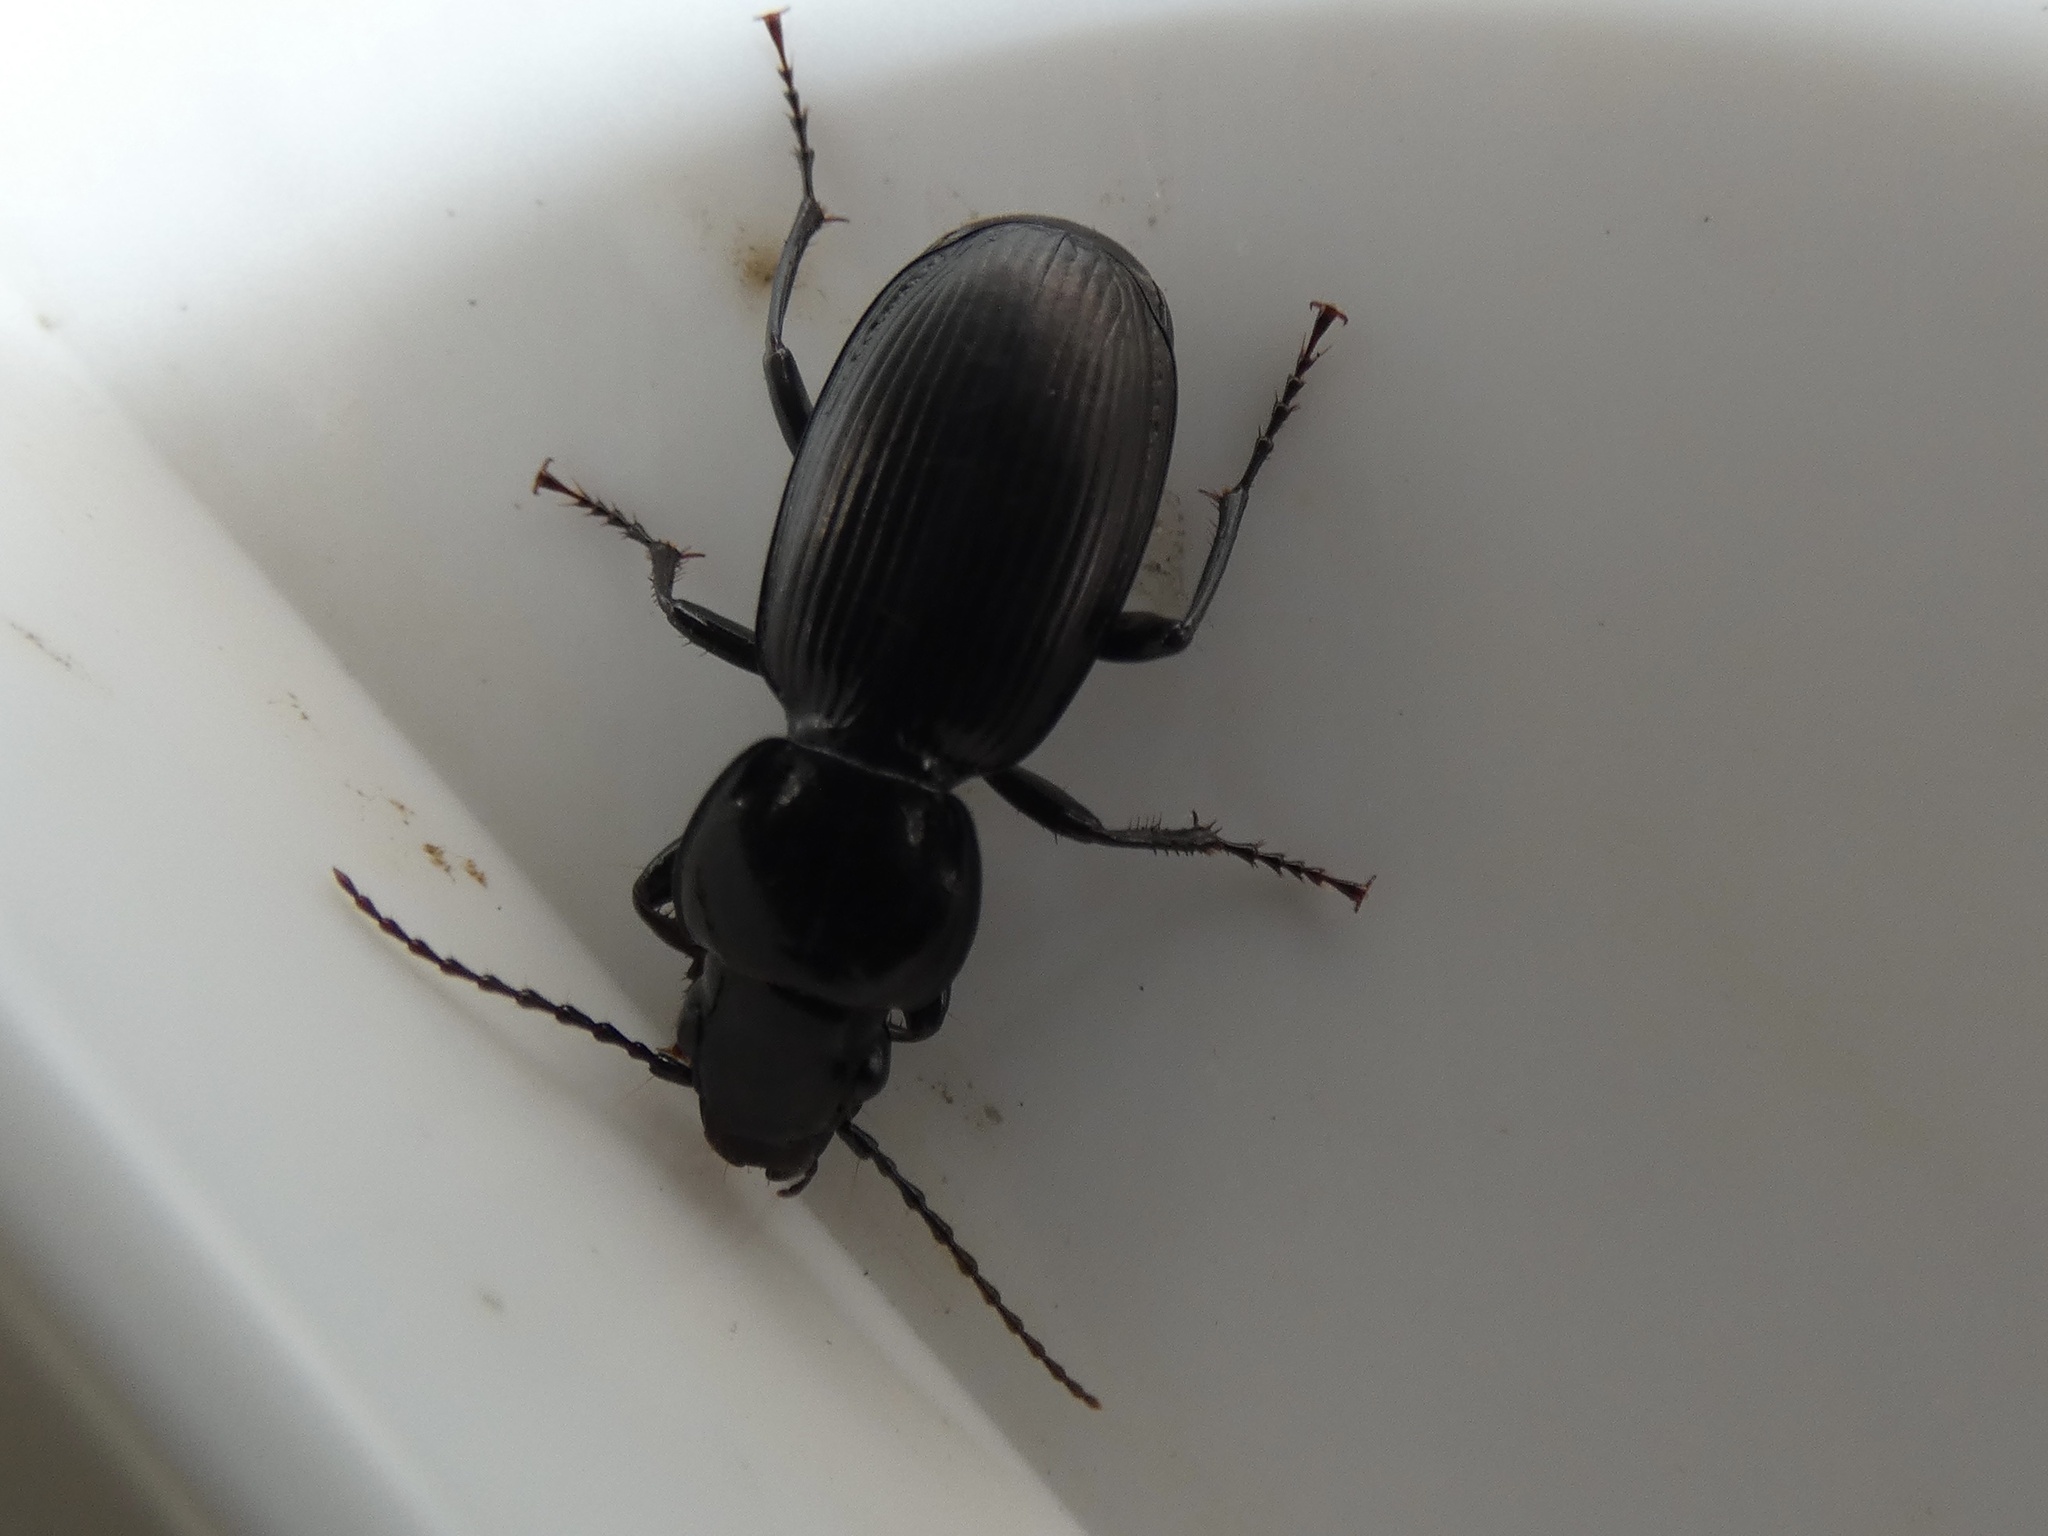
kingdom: Animalia
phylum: Arthropoda
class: Insecta
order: Coleoptera
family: Carabidae
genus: Pterostichus
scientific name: Pterostichus madidus
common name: Black clock
